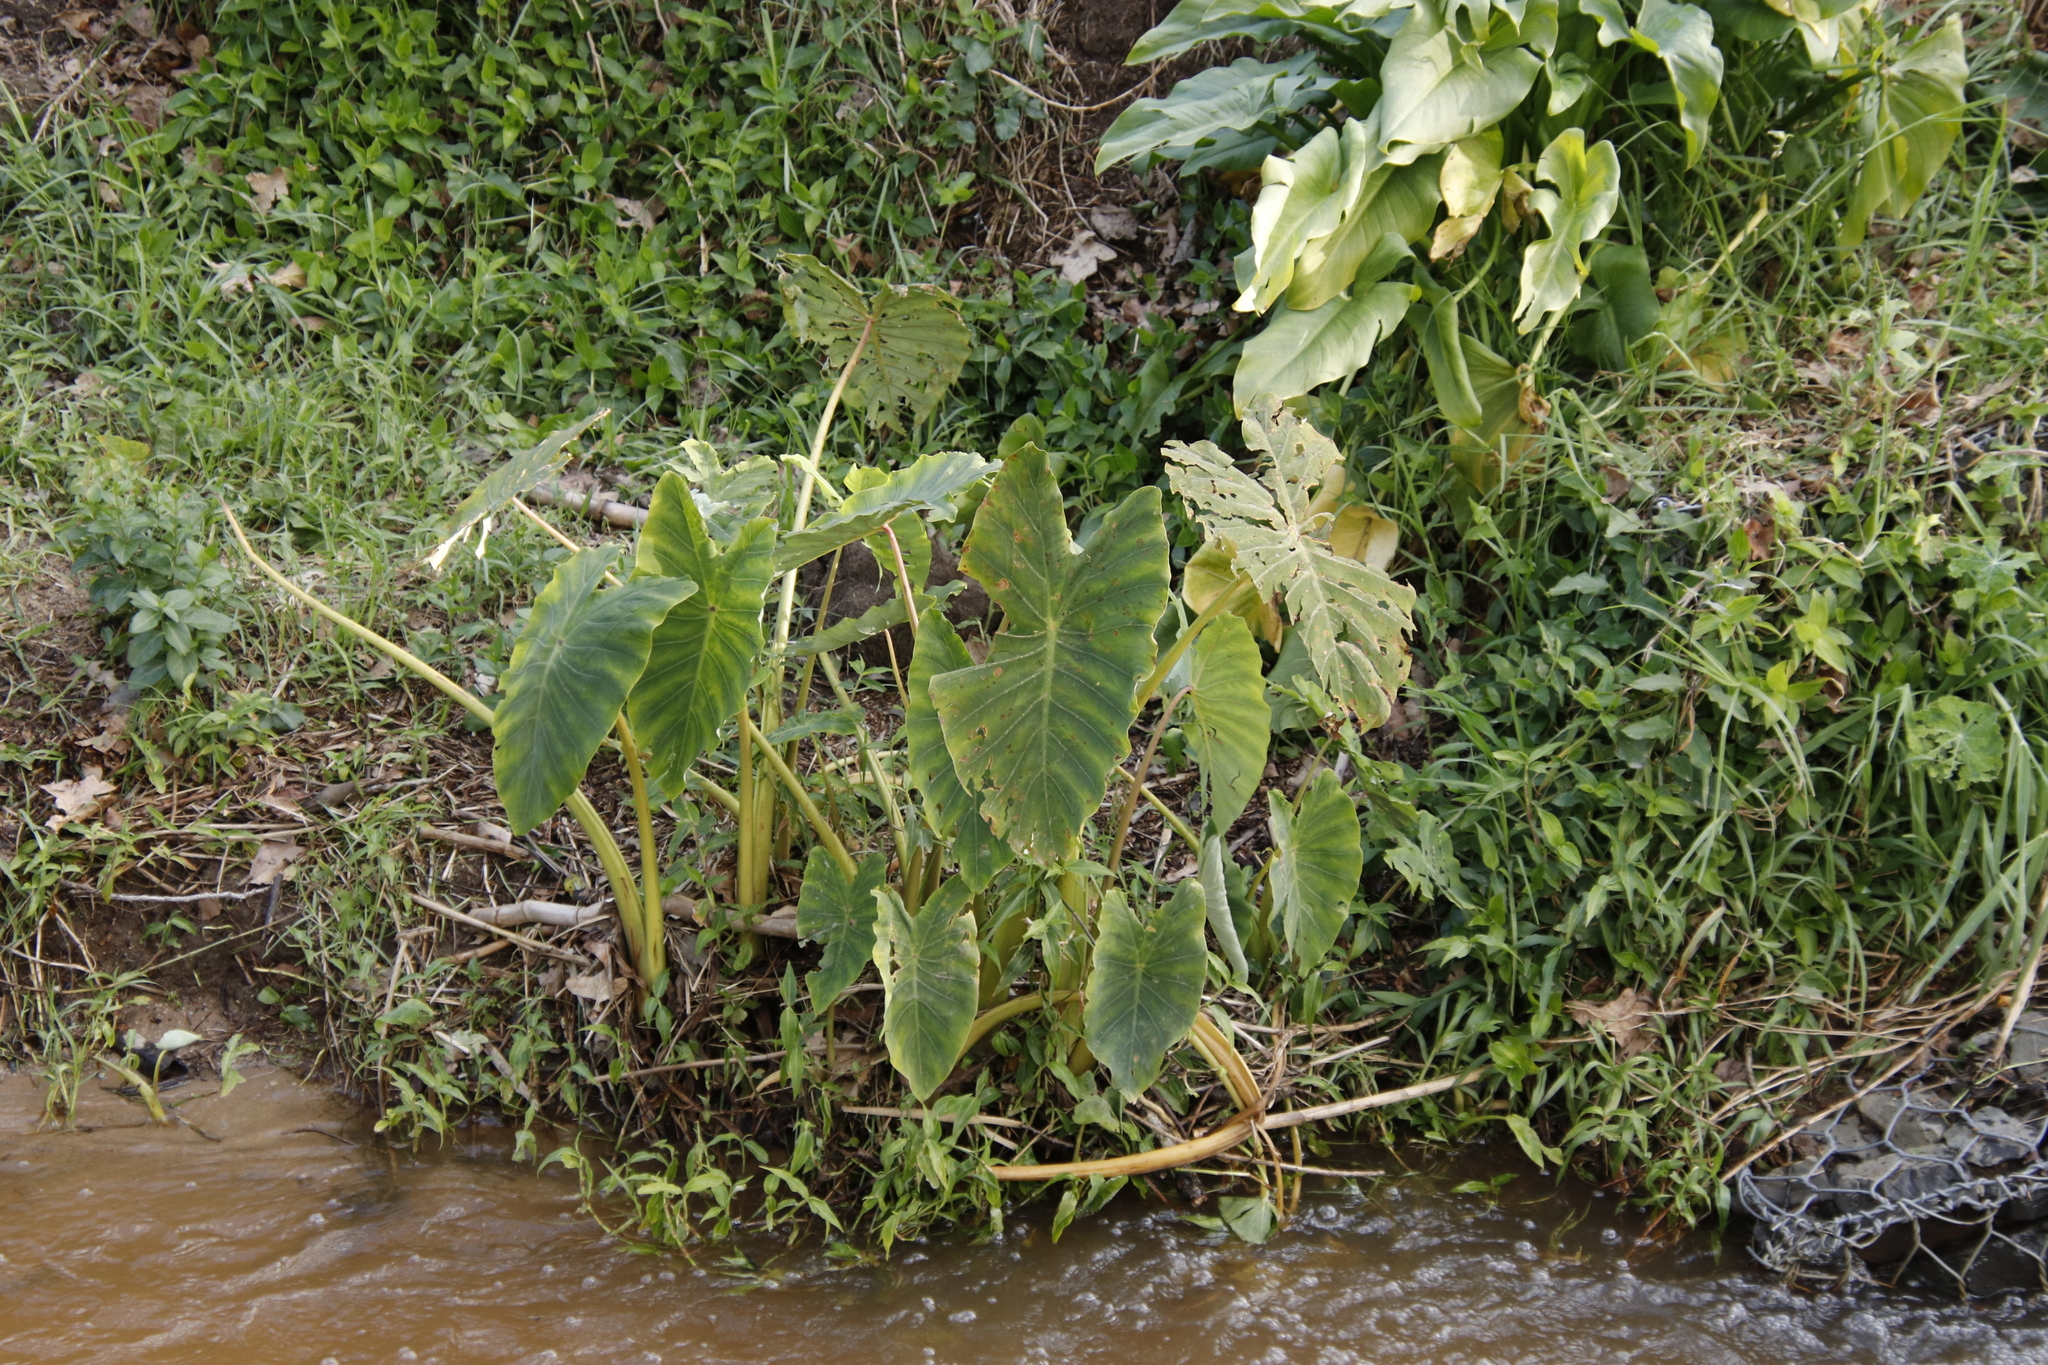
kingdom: Plantae
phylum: Tracheophyta
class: Liliopsida
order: Alismatales
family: Araceae
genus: Colocasia
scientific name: Colocasia esculenta
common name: Taro
